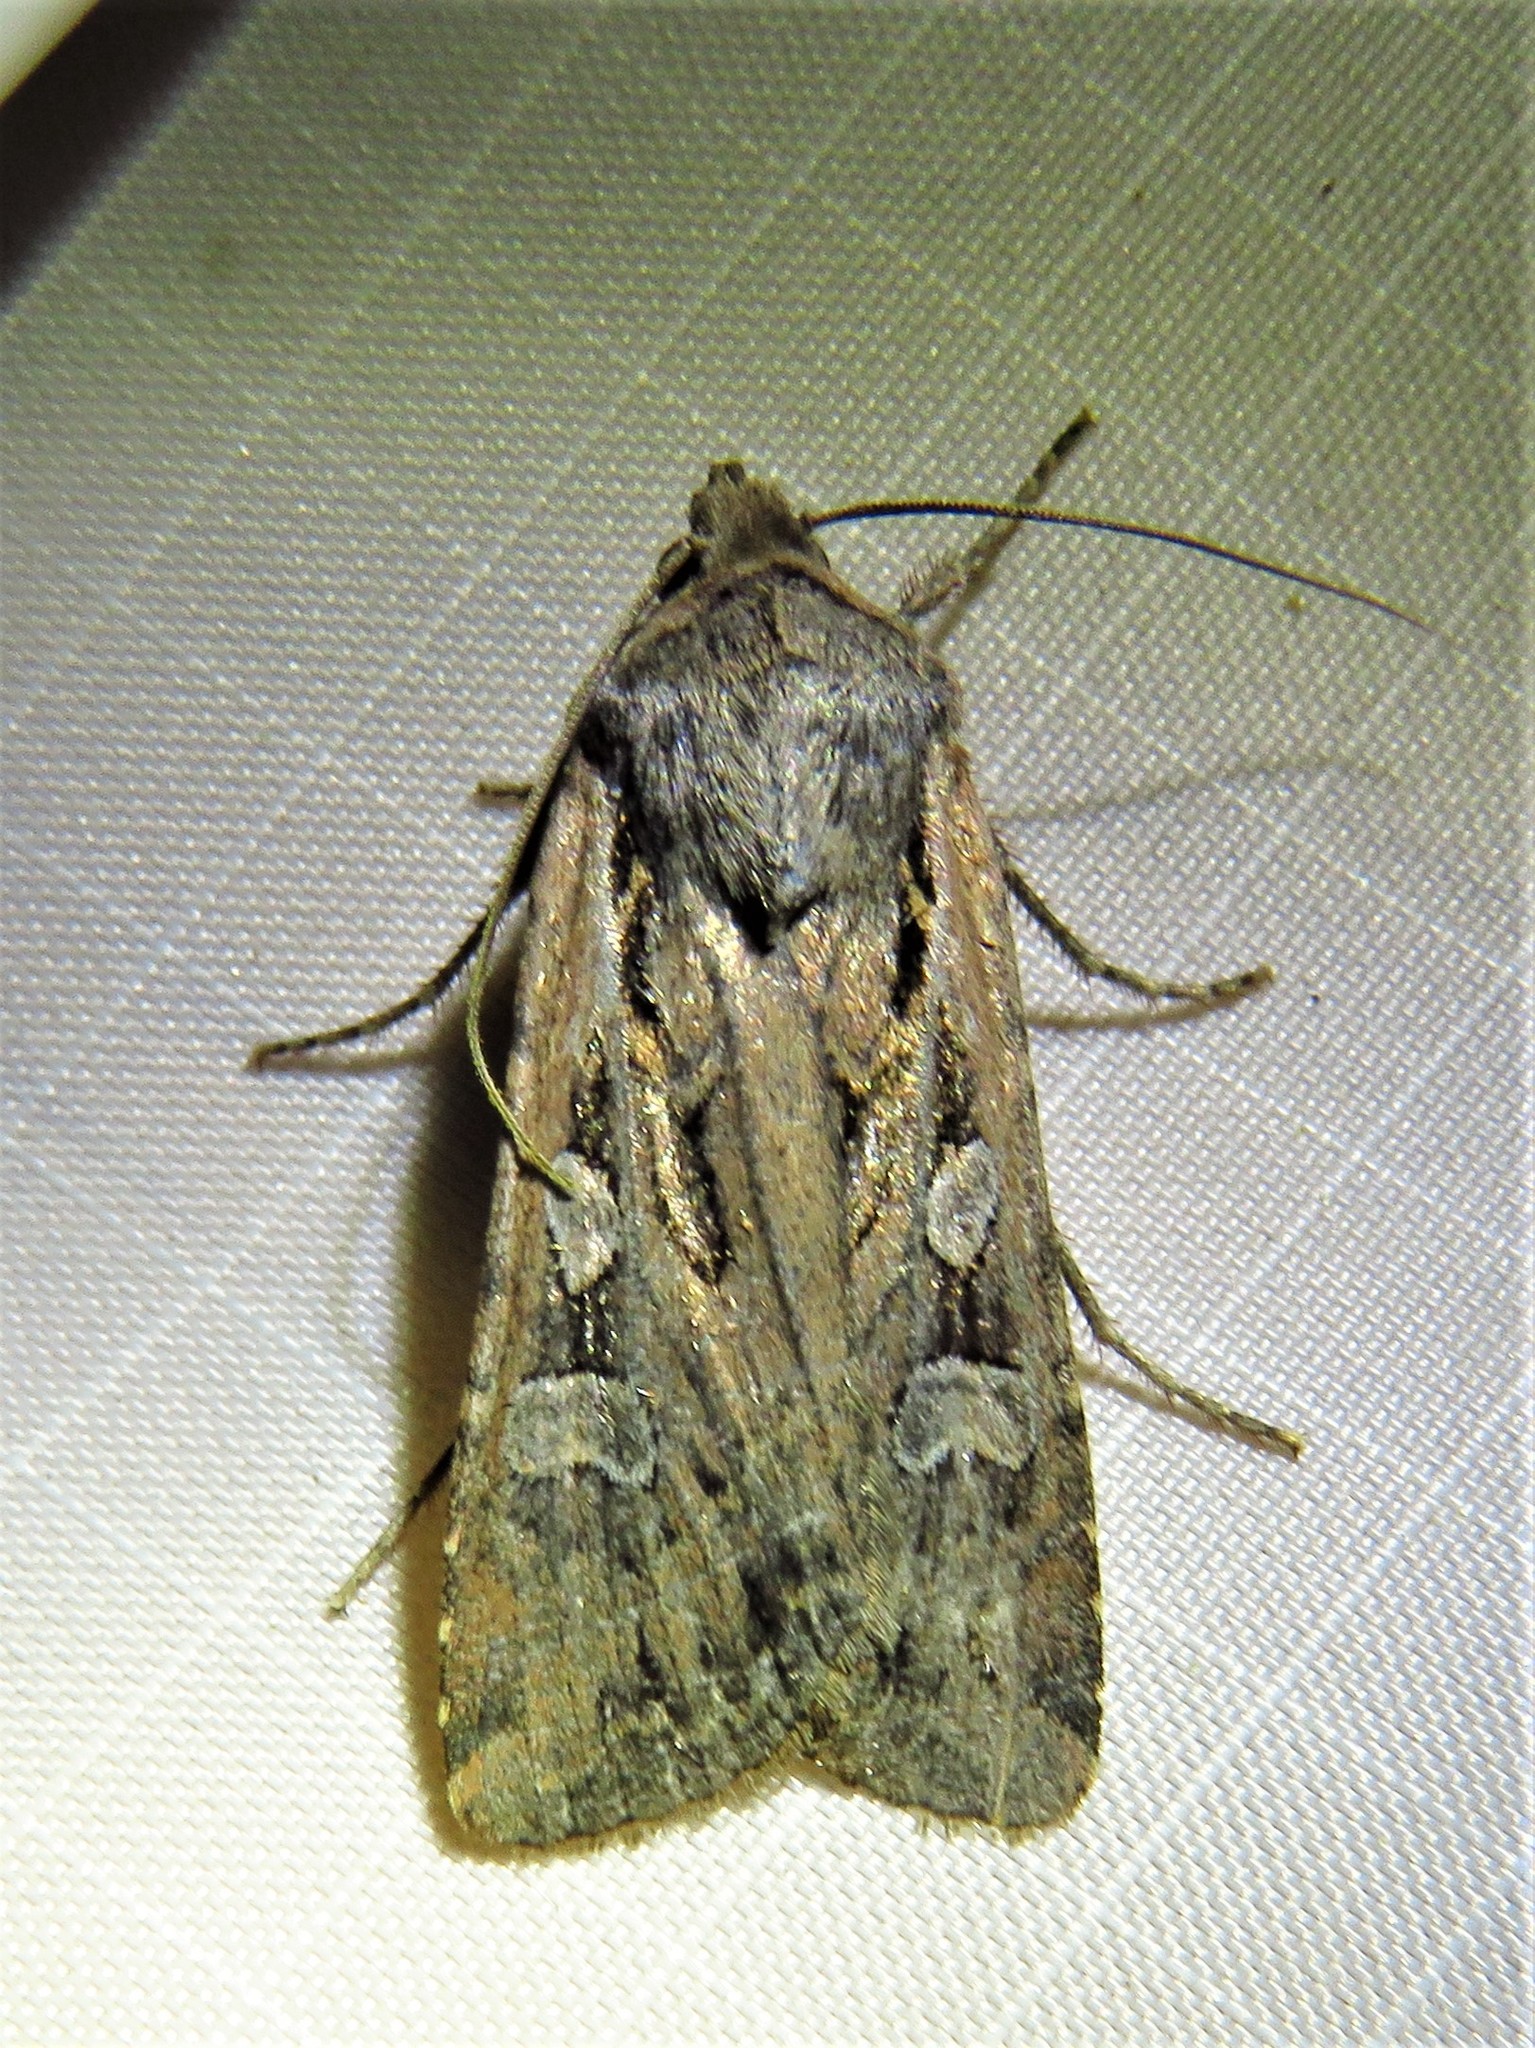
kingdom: Animalia
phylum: Arthropoda
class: Insecta
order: Lepidoptera
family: Noctuidae
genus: Euxoa
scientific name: Euxoa auxiliaris
